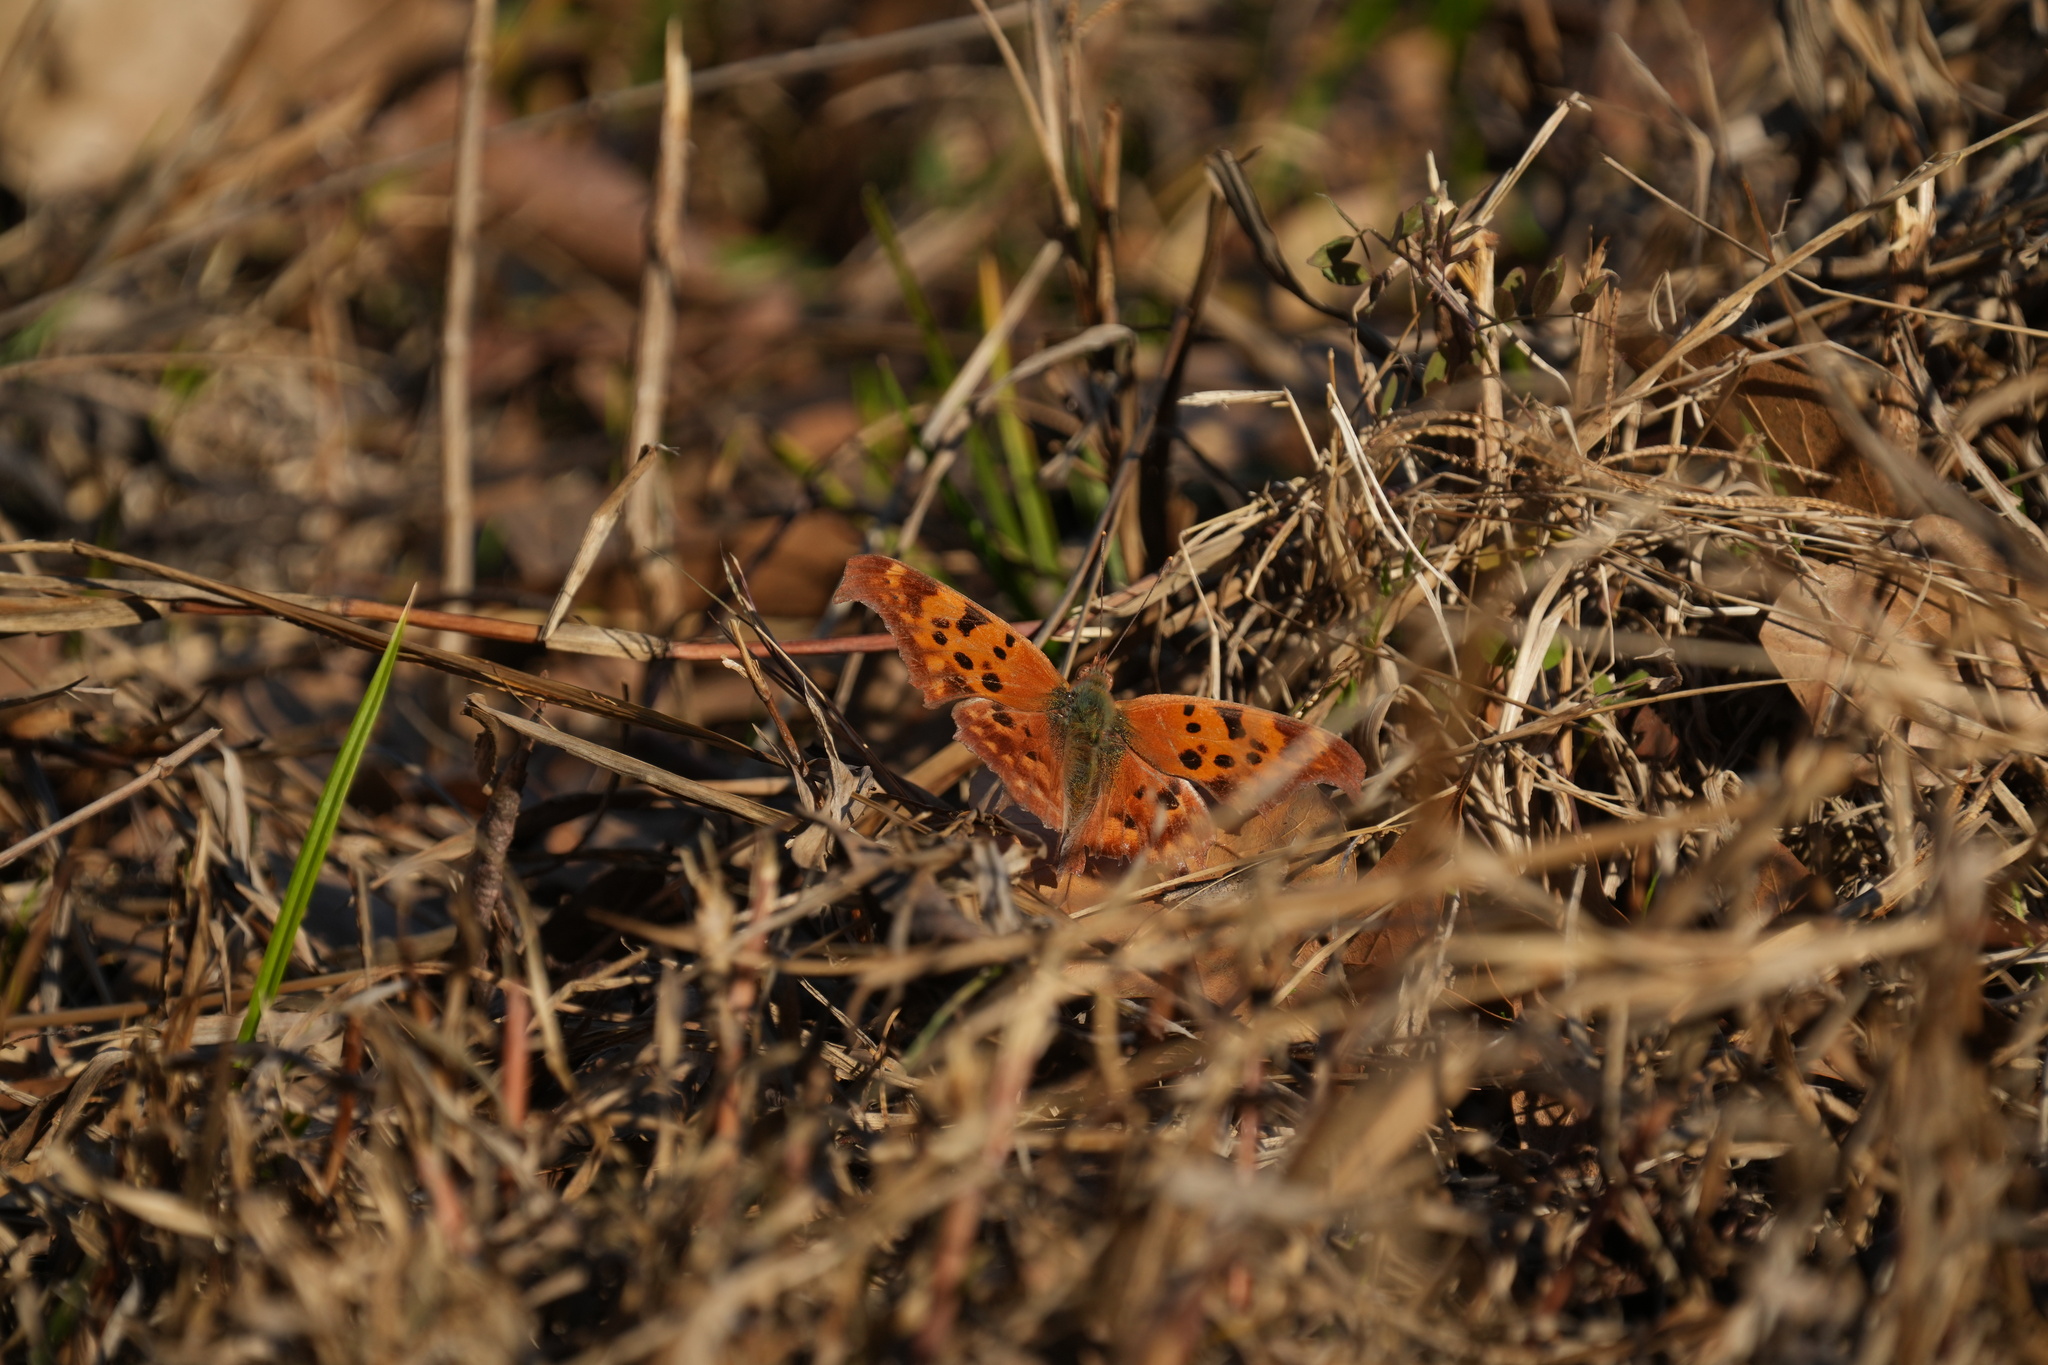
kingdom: Animalia
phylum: Arthropoda
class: Insecta
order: Lepidoptera
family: Nymphalidae
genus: Polygonia
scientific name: Polygonia interrogationis
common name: Question mark
